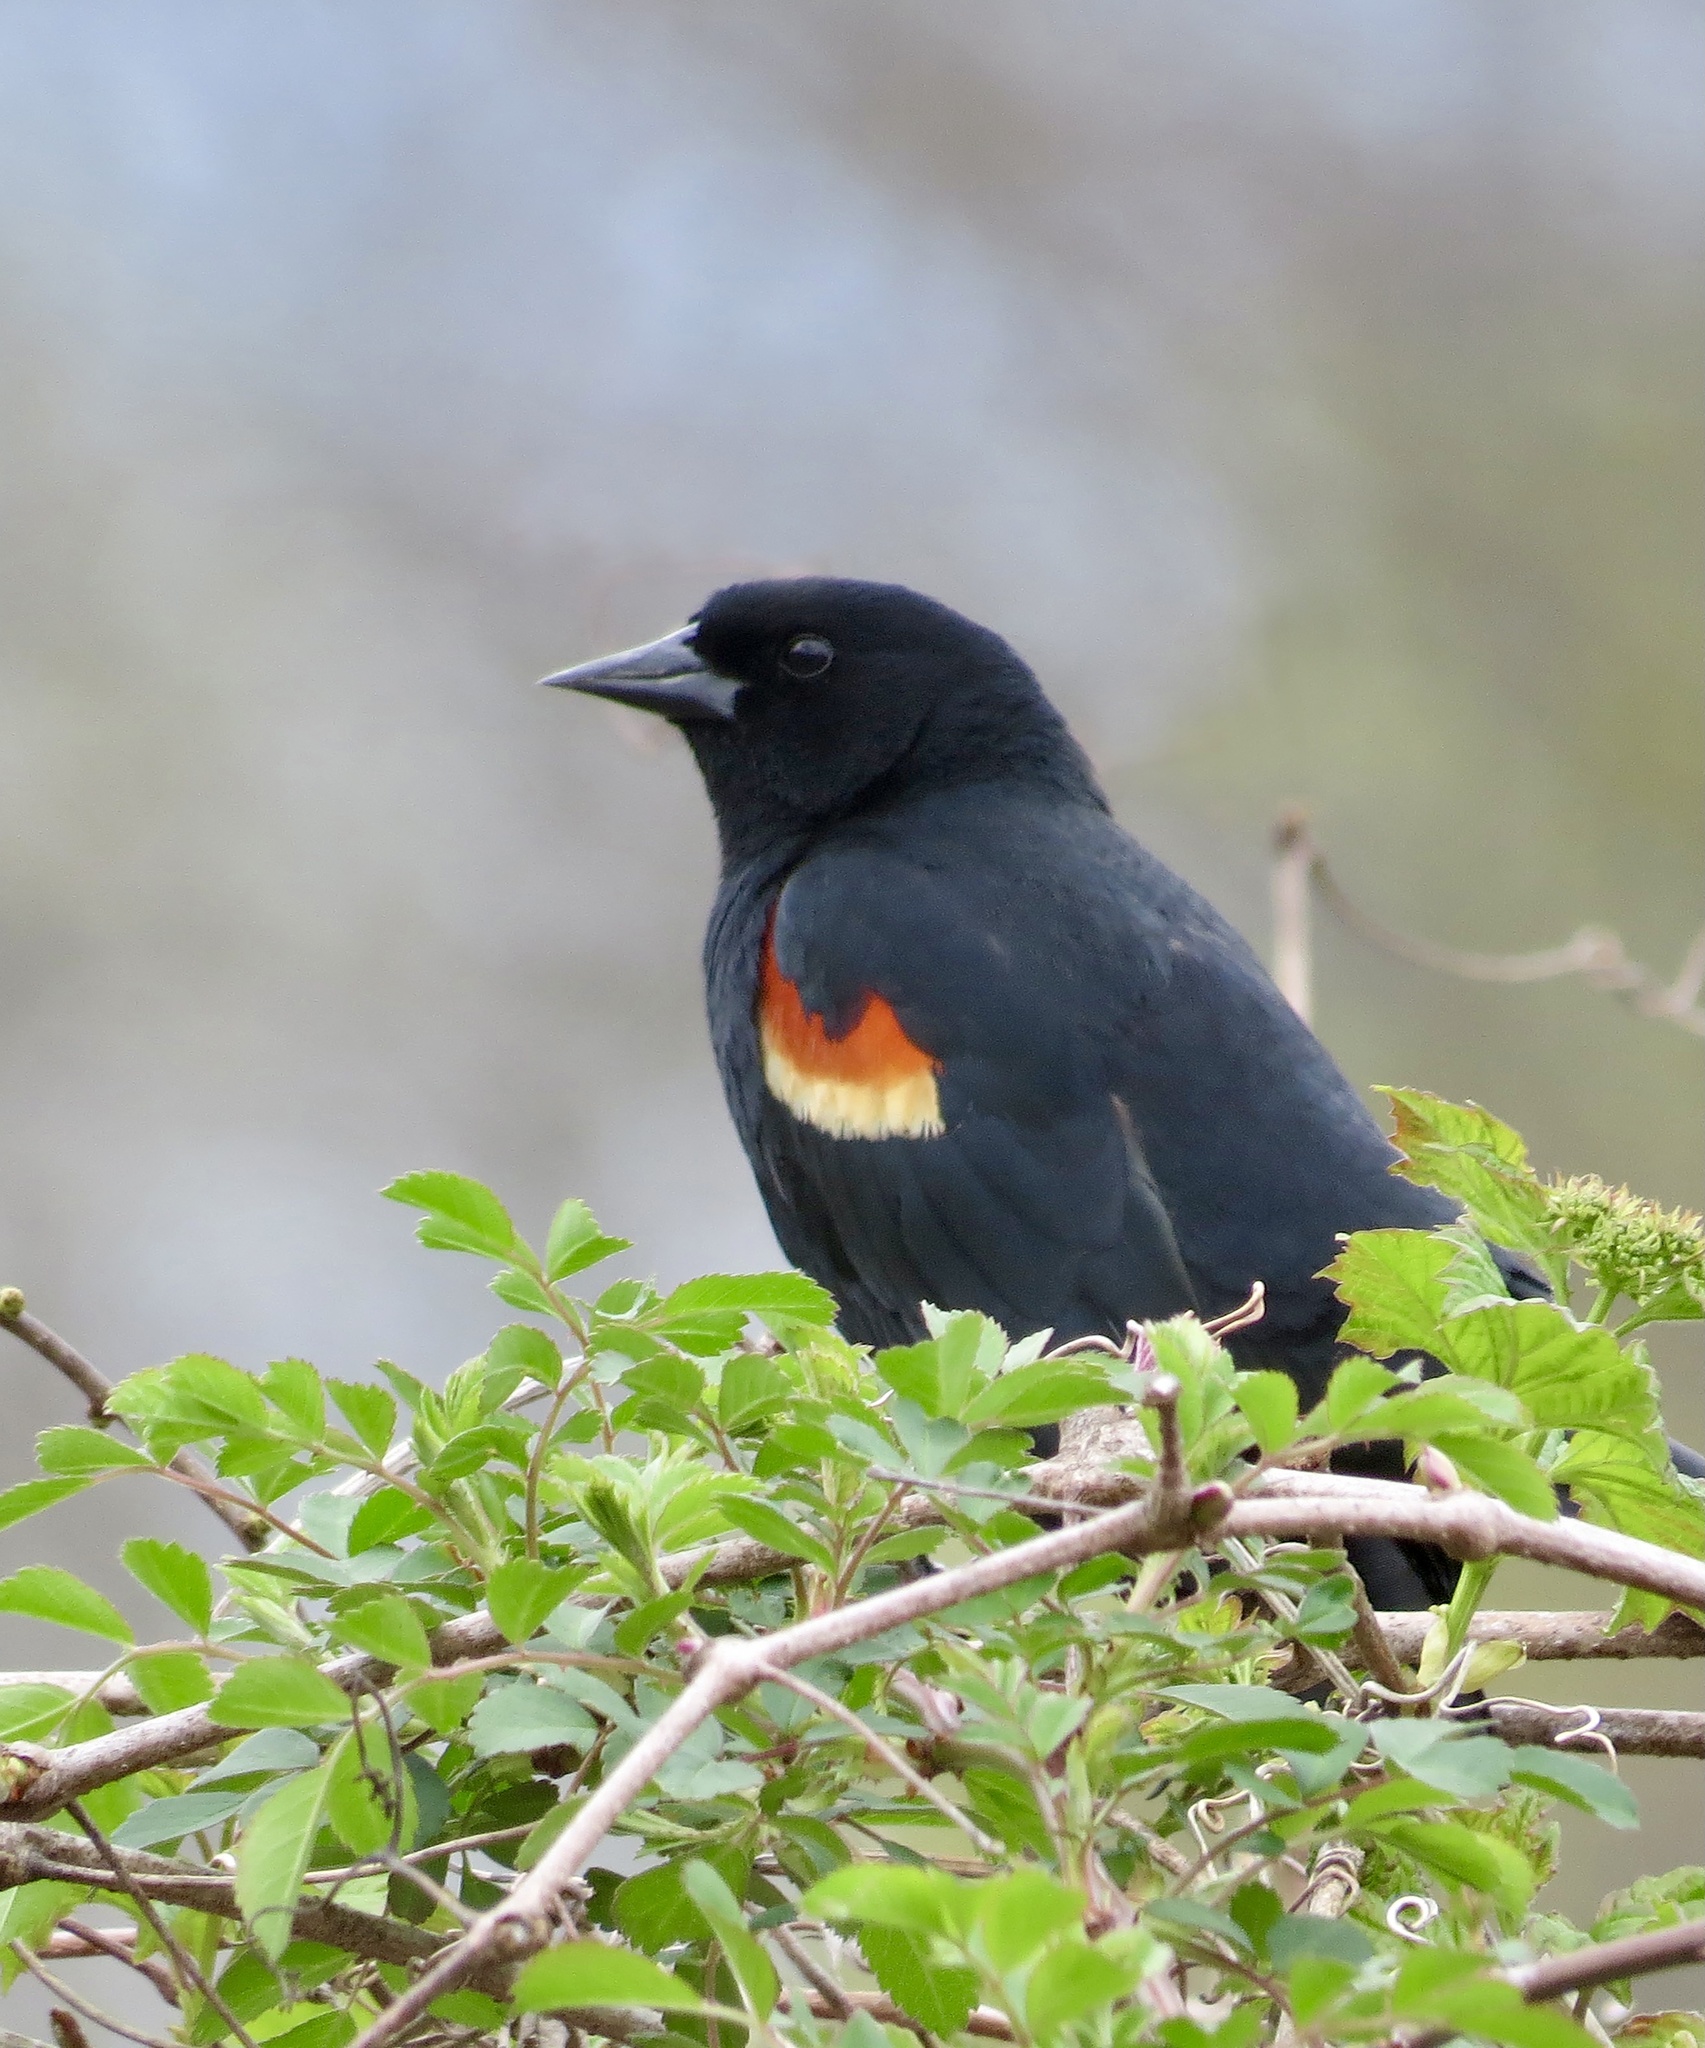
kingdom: Animalia
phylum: Chordata
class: Aves
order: Passeriformes
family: Icteridae
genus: Agelaius
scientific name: Agelaius phoeniceus
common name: Red-winged blackbird
